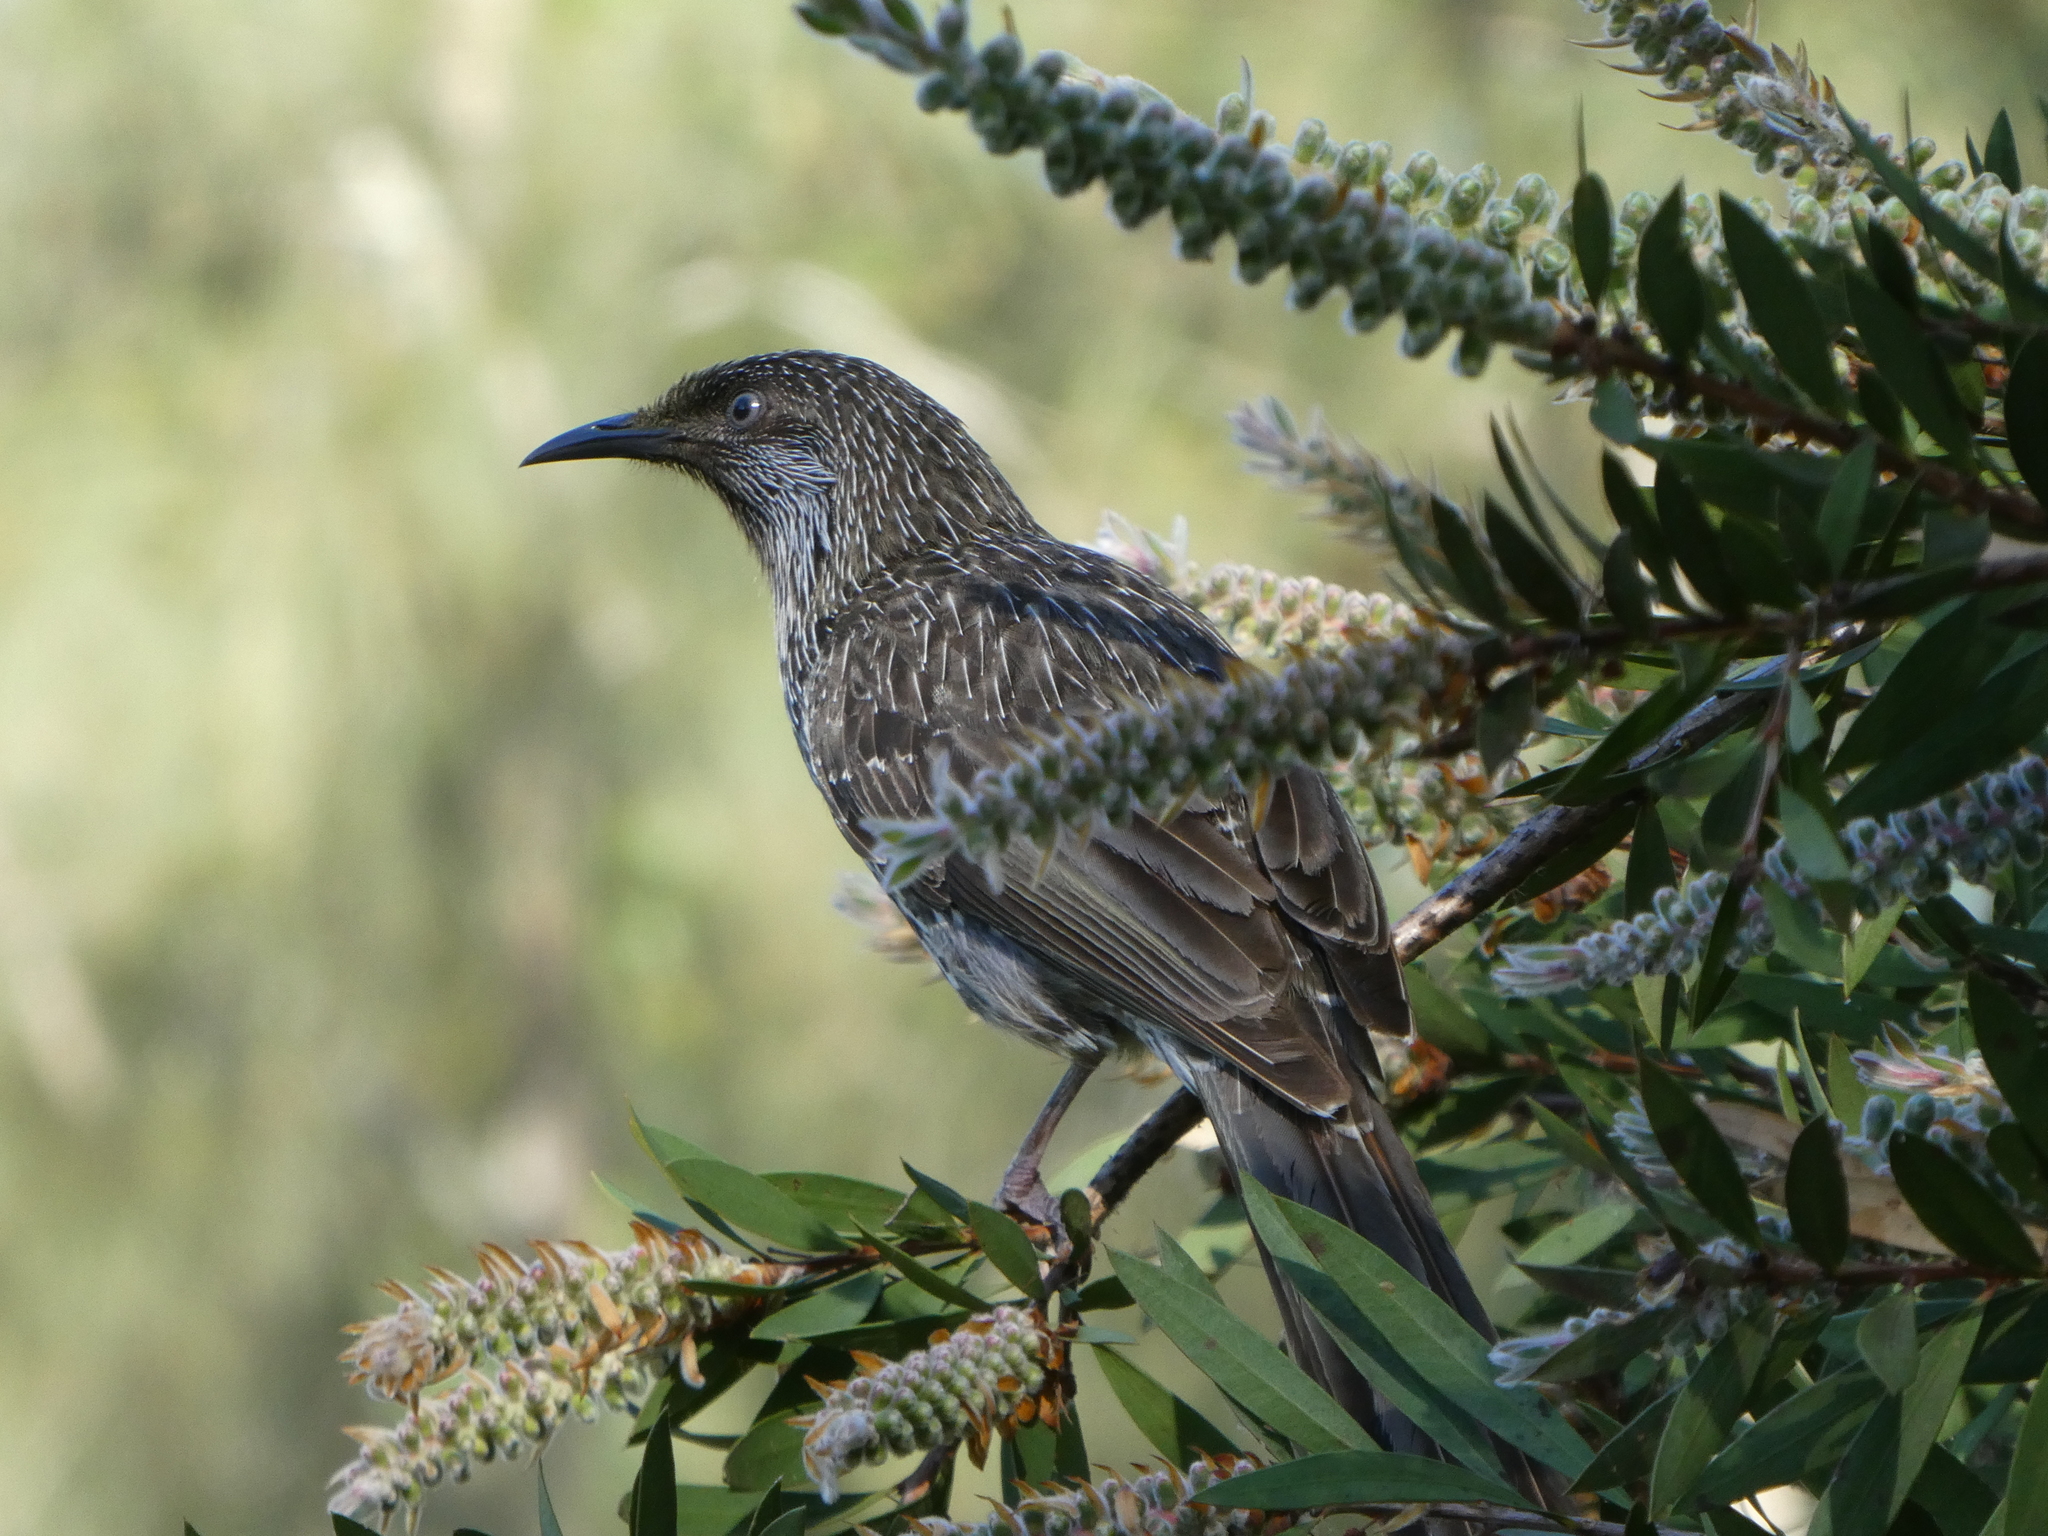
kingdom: Animalia
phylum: Chordata
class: Aves
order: Passeriformes
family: Meliphagidae
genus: Anthochaera
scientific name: Anthochaera chrysoptera
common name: Little wattlebird
